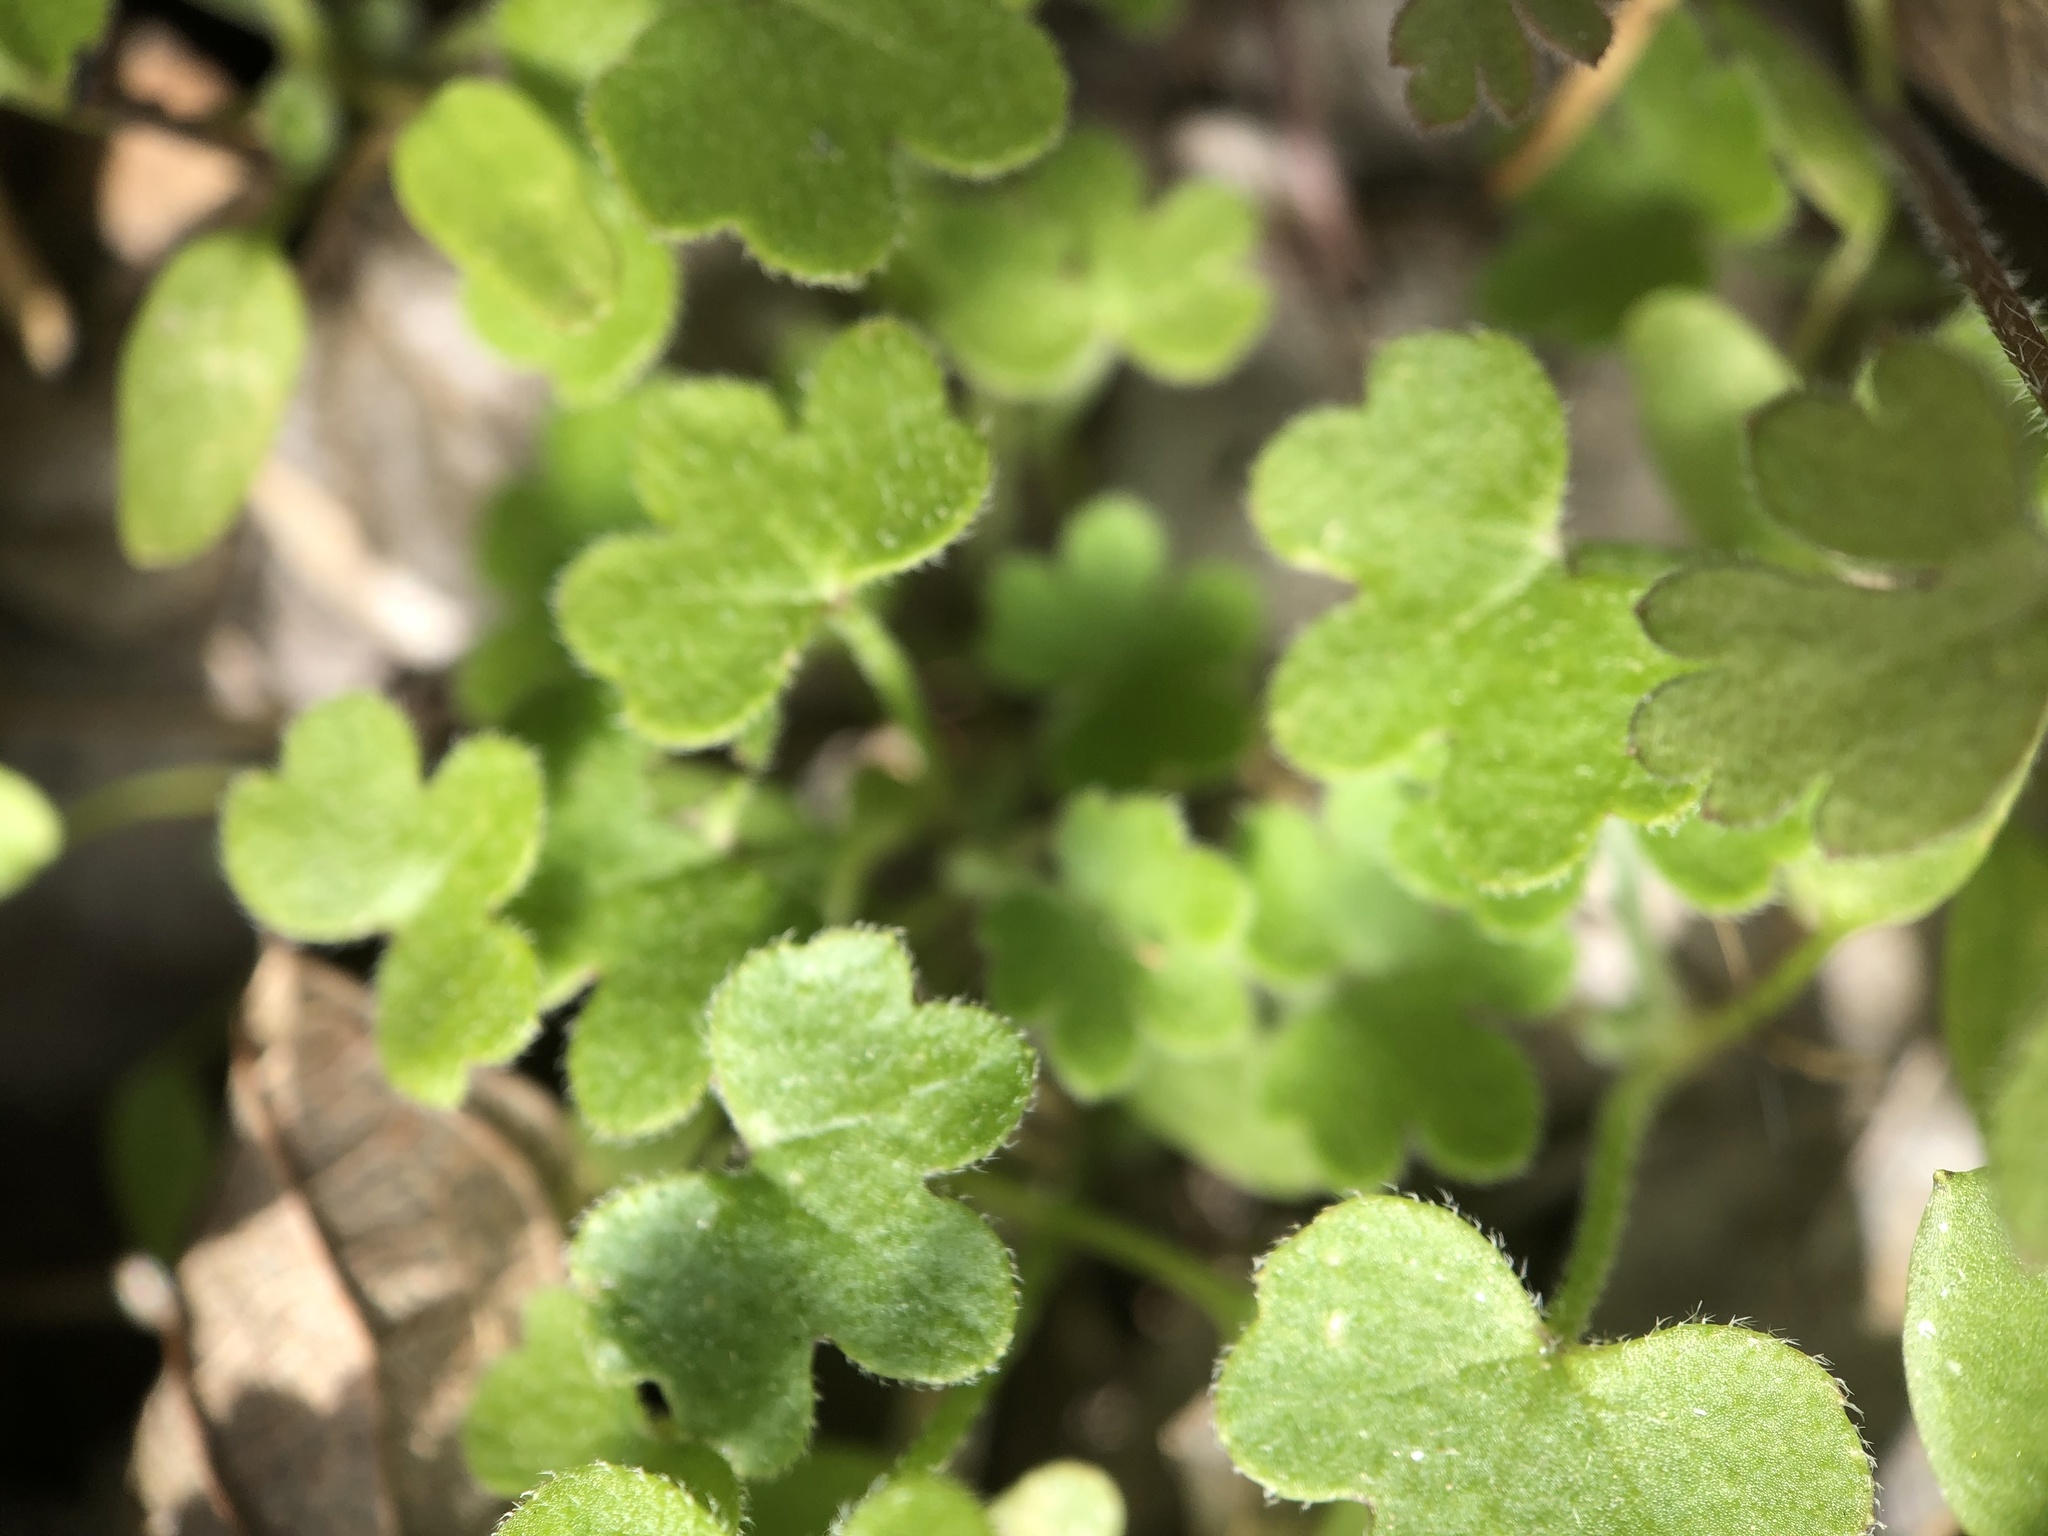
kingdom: Plantae
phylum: Tracheophyta
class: Magnoliopsida
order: Apiales
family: Apiaceae
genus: Bowlesia
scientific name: Bowlesia incana
